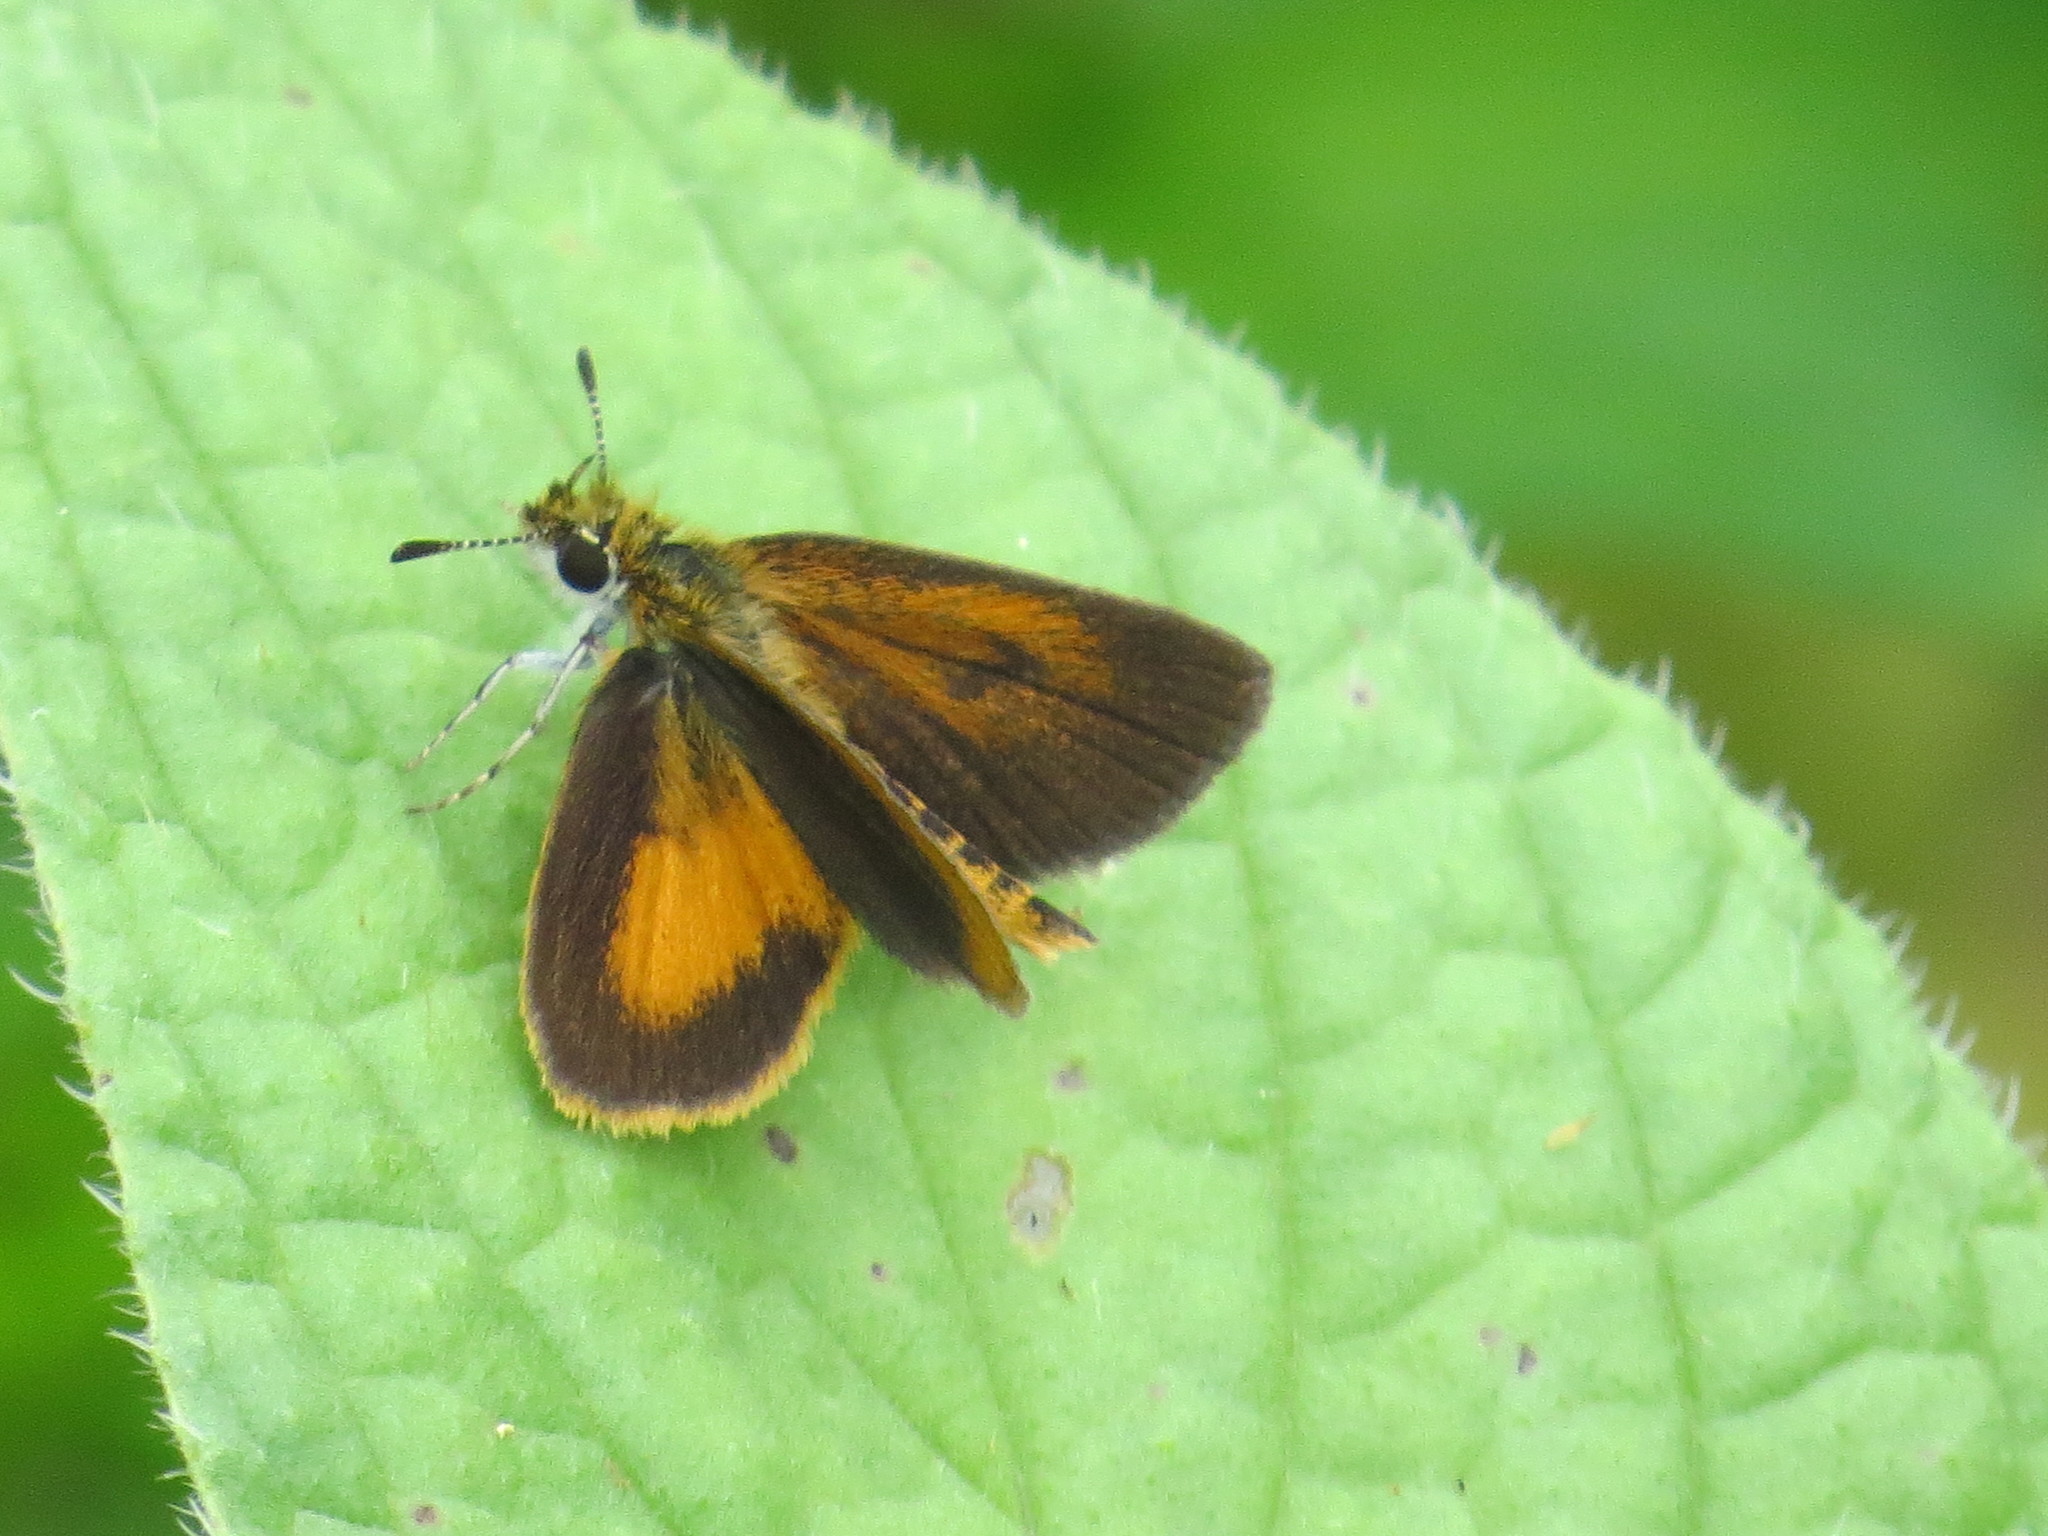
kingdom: Animalia
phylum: Arthropoda
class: Insecta
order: Lepidoptera
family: Hesperiidae
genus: Ancyloxypha
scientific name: Ancyloxypha numitor
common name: Least skipper
